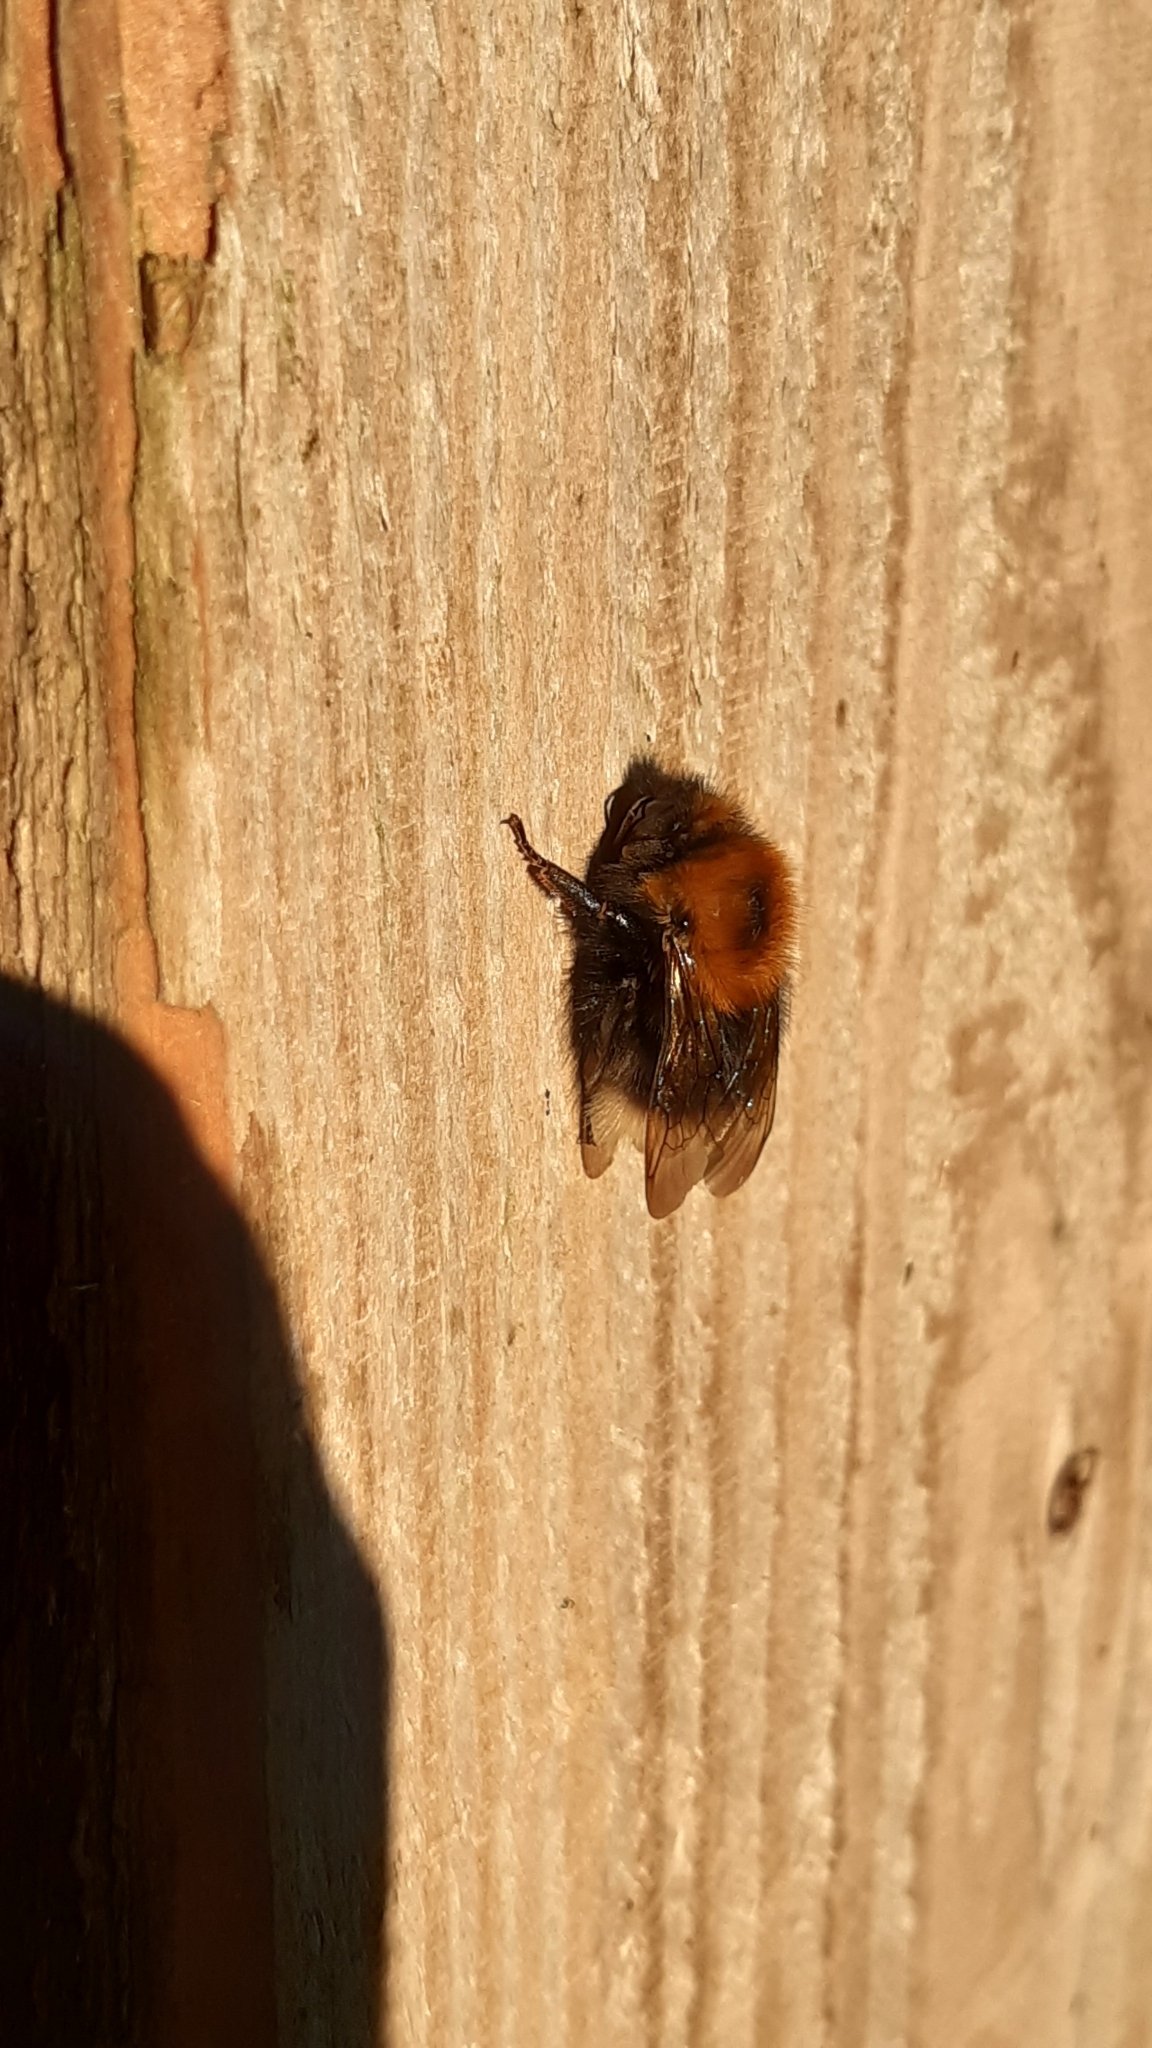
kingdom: Animalia
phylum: Arthropoda
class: Insecta
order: Hymenoptera
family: Apidae
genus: Bombus
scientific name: Bombus hypnorum
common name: New garden bumblebee
